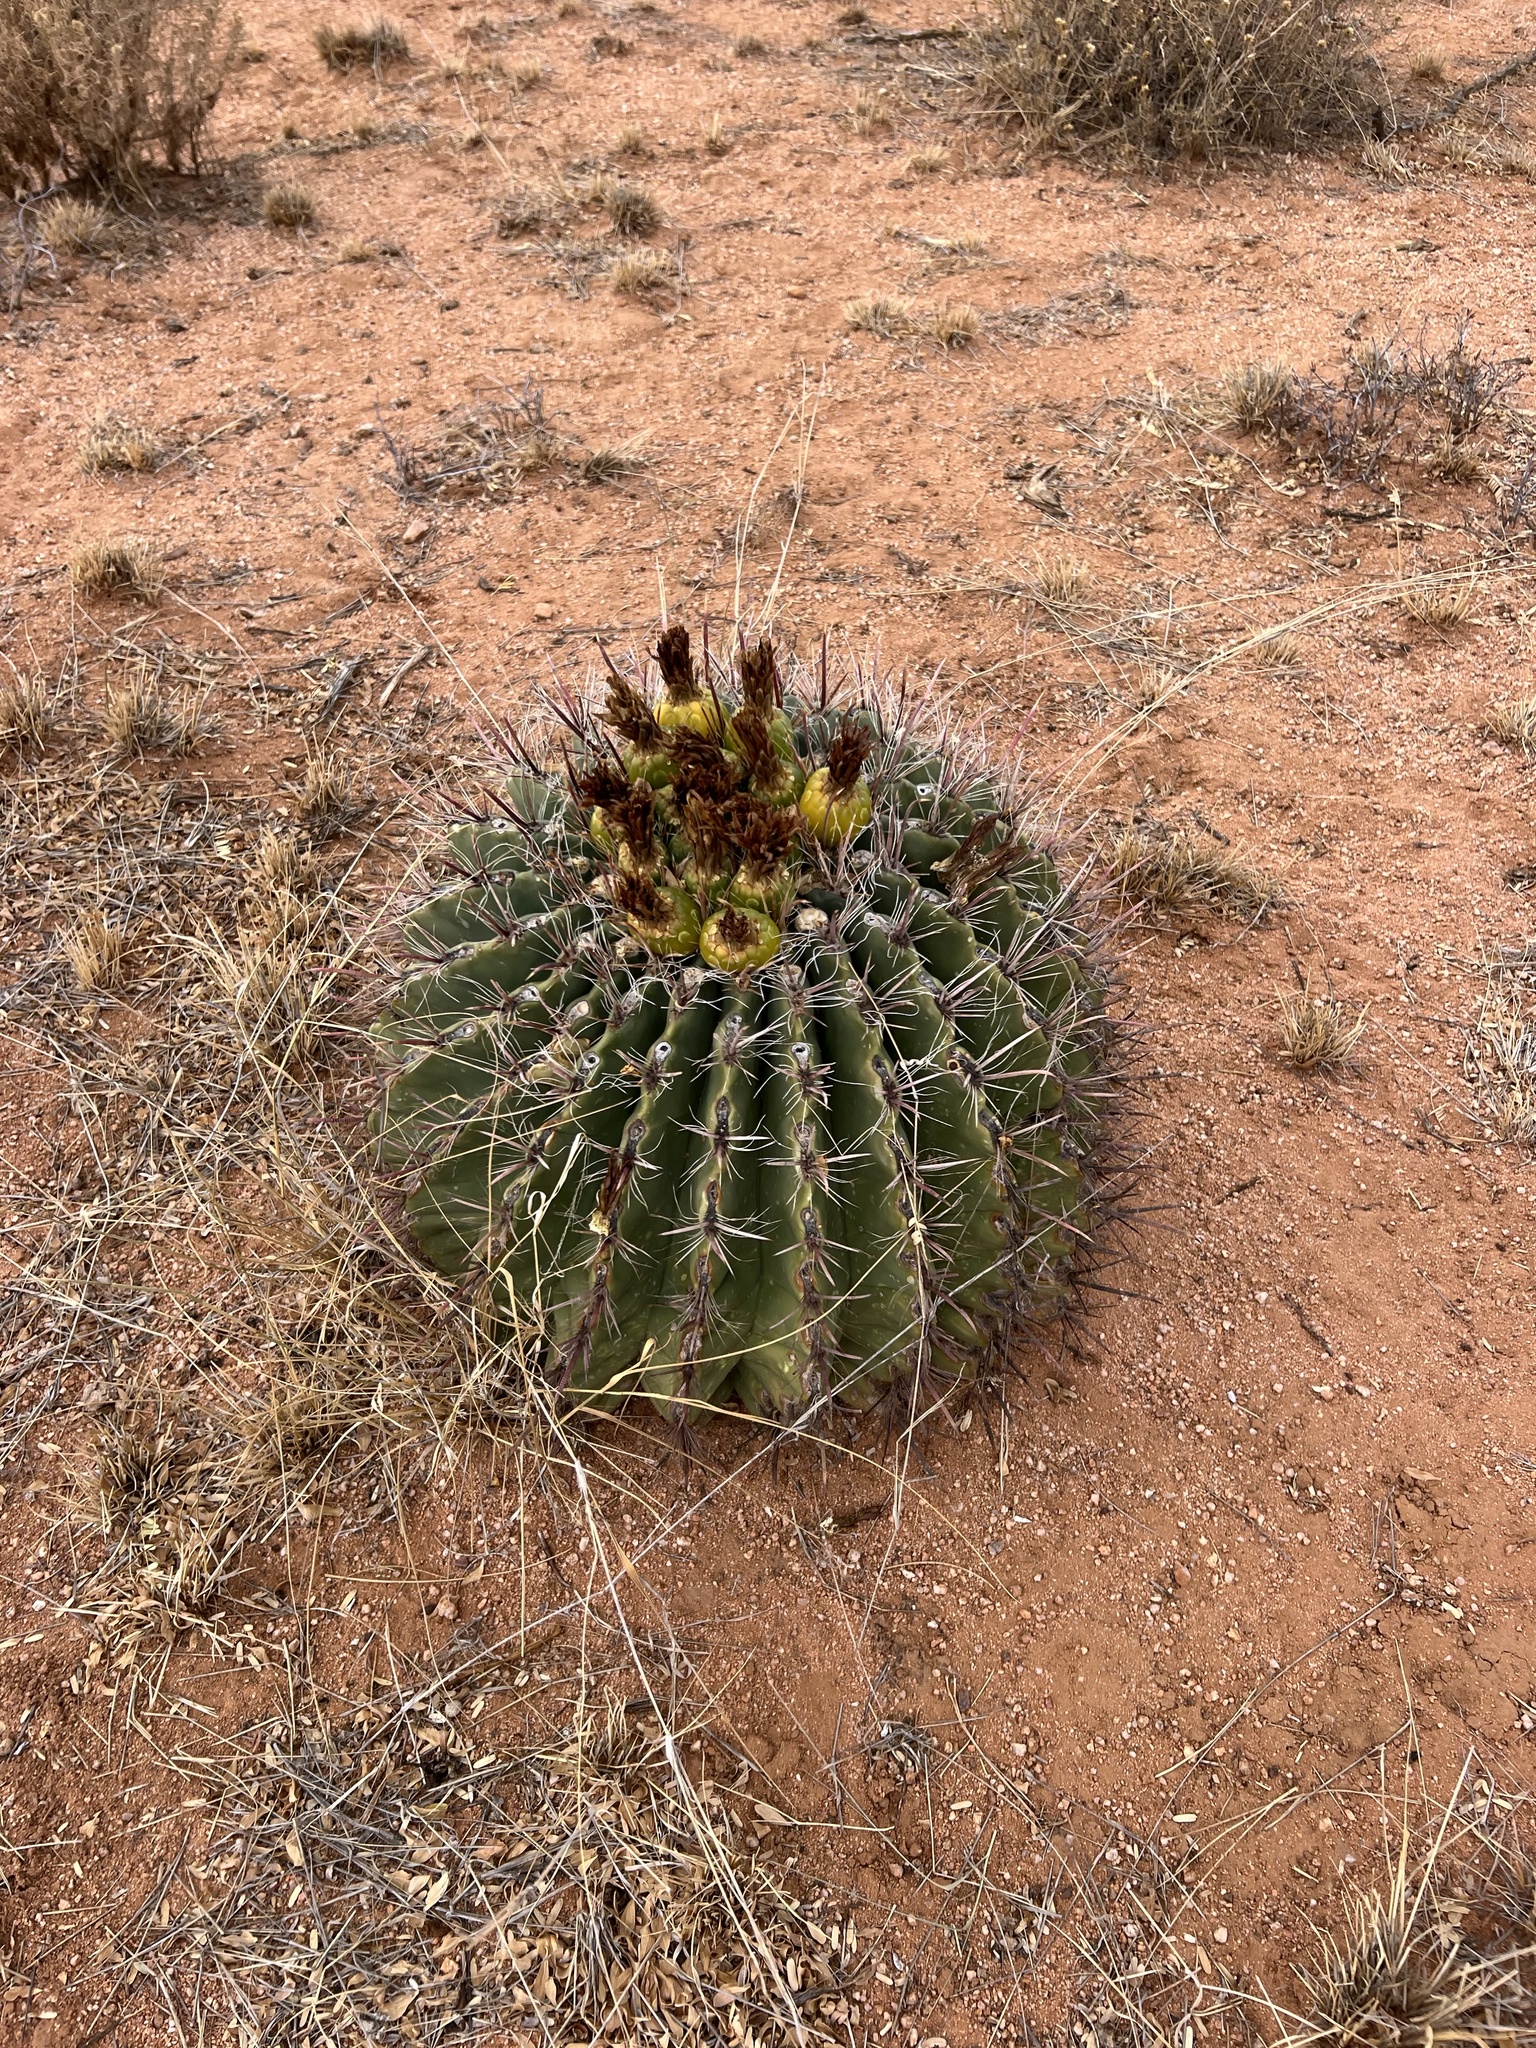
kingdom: Plantae
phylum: Tracheophyta
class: Magnoliopsida
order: Caryophyllales
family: Cactaceae
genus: Ferocactus
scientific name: Ferocactus wislizeni
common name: Candy barrel cactus
